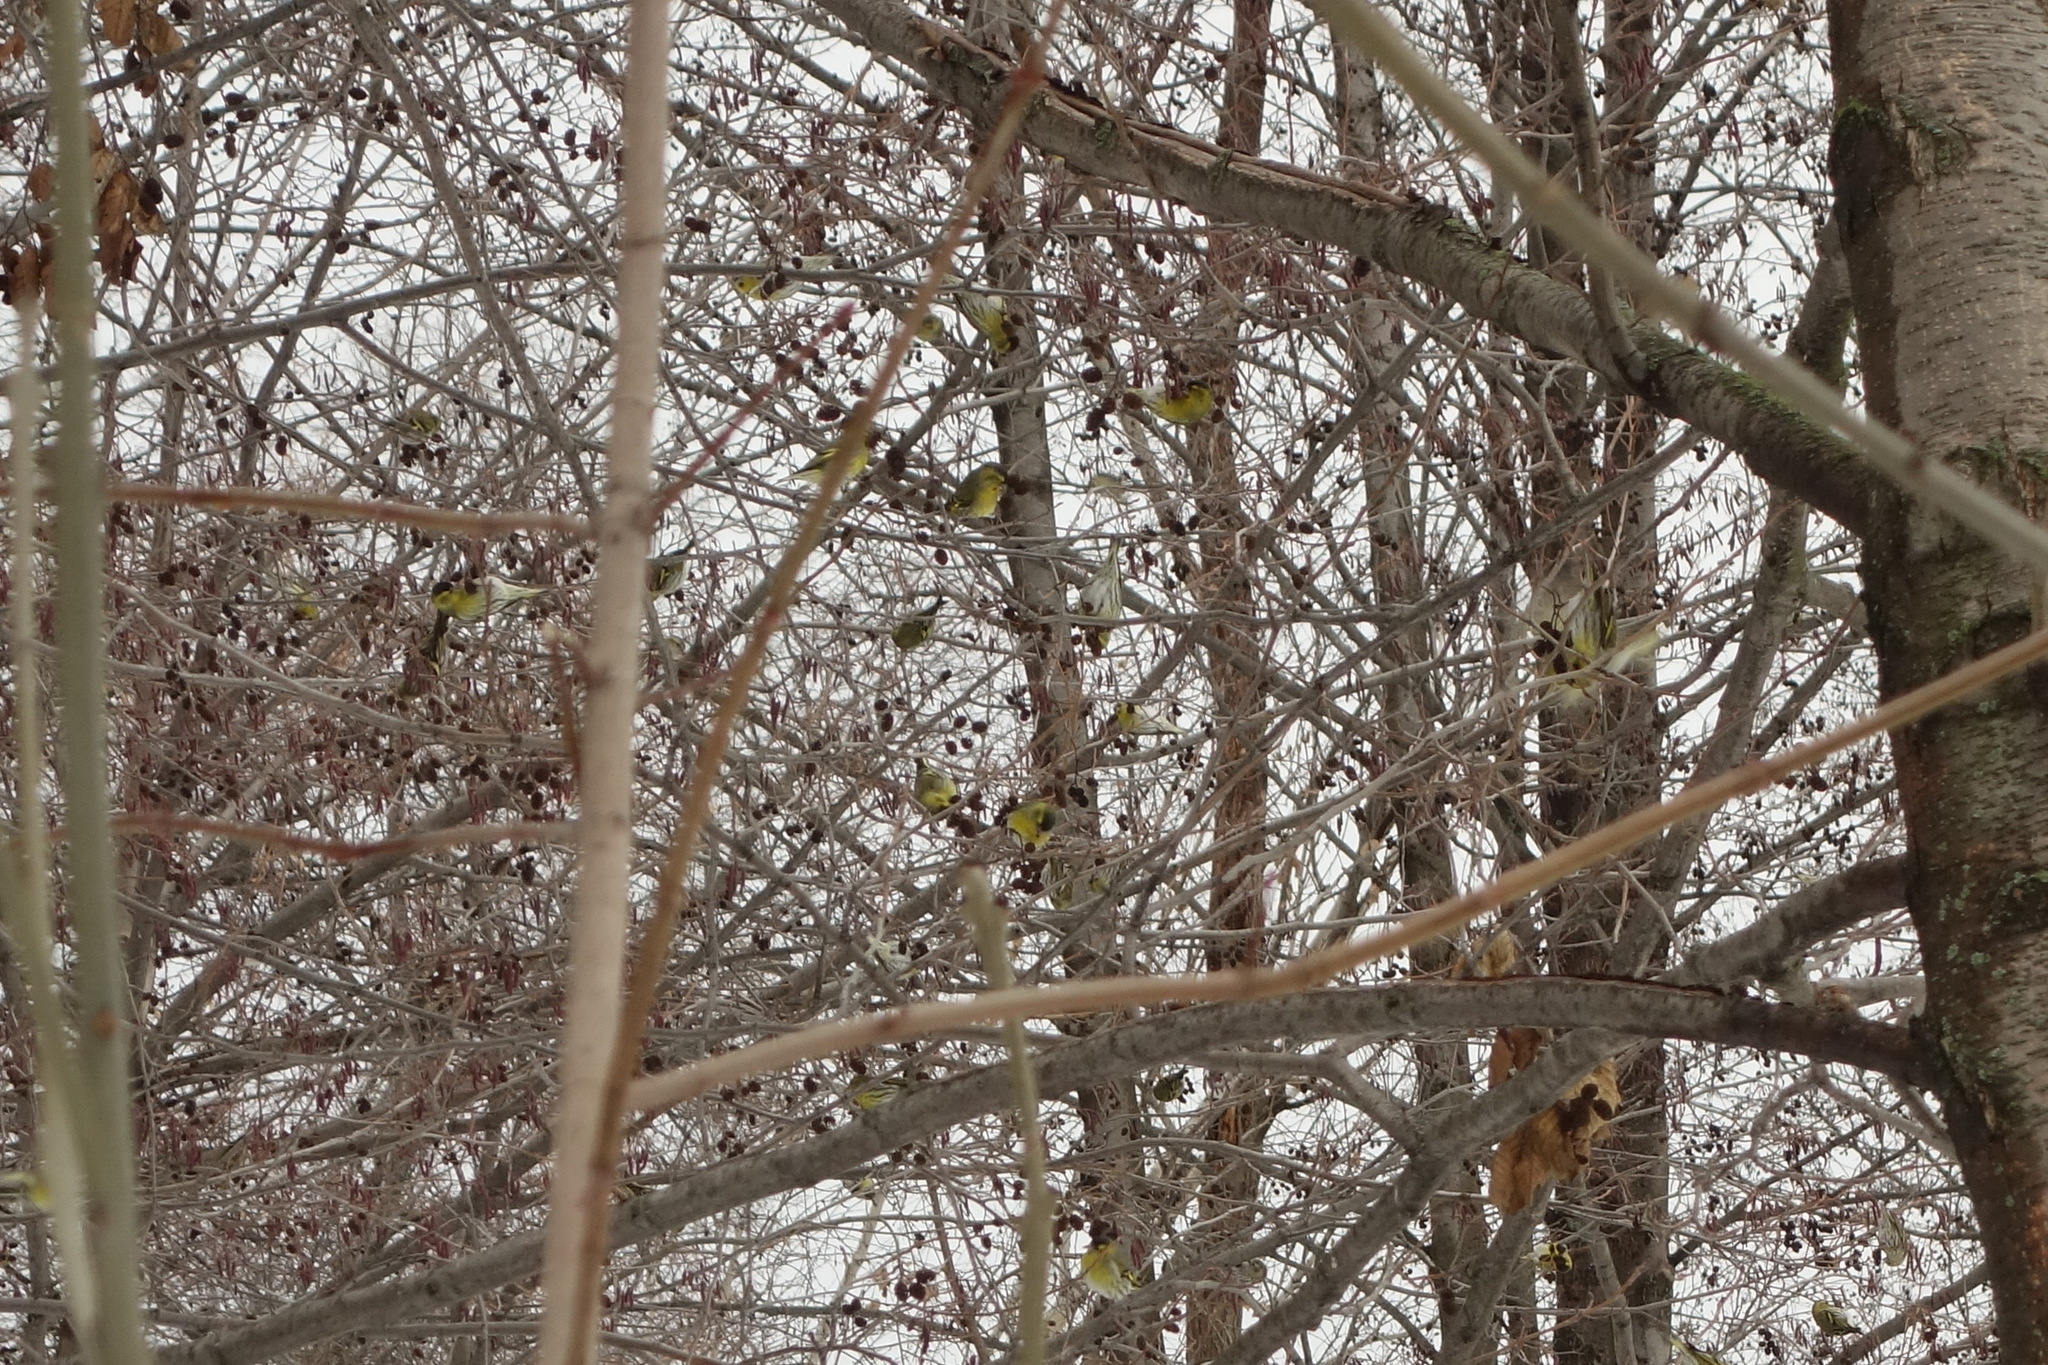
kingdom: Animalia
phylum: Chordata
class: Aves
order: Passeriformes
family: Fringillidae
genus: Spinus
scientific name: Spinus spinus
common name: Eurasian siskin
